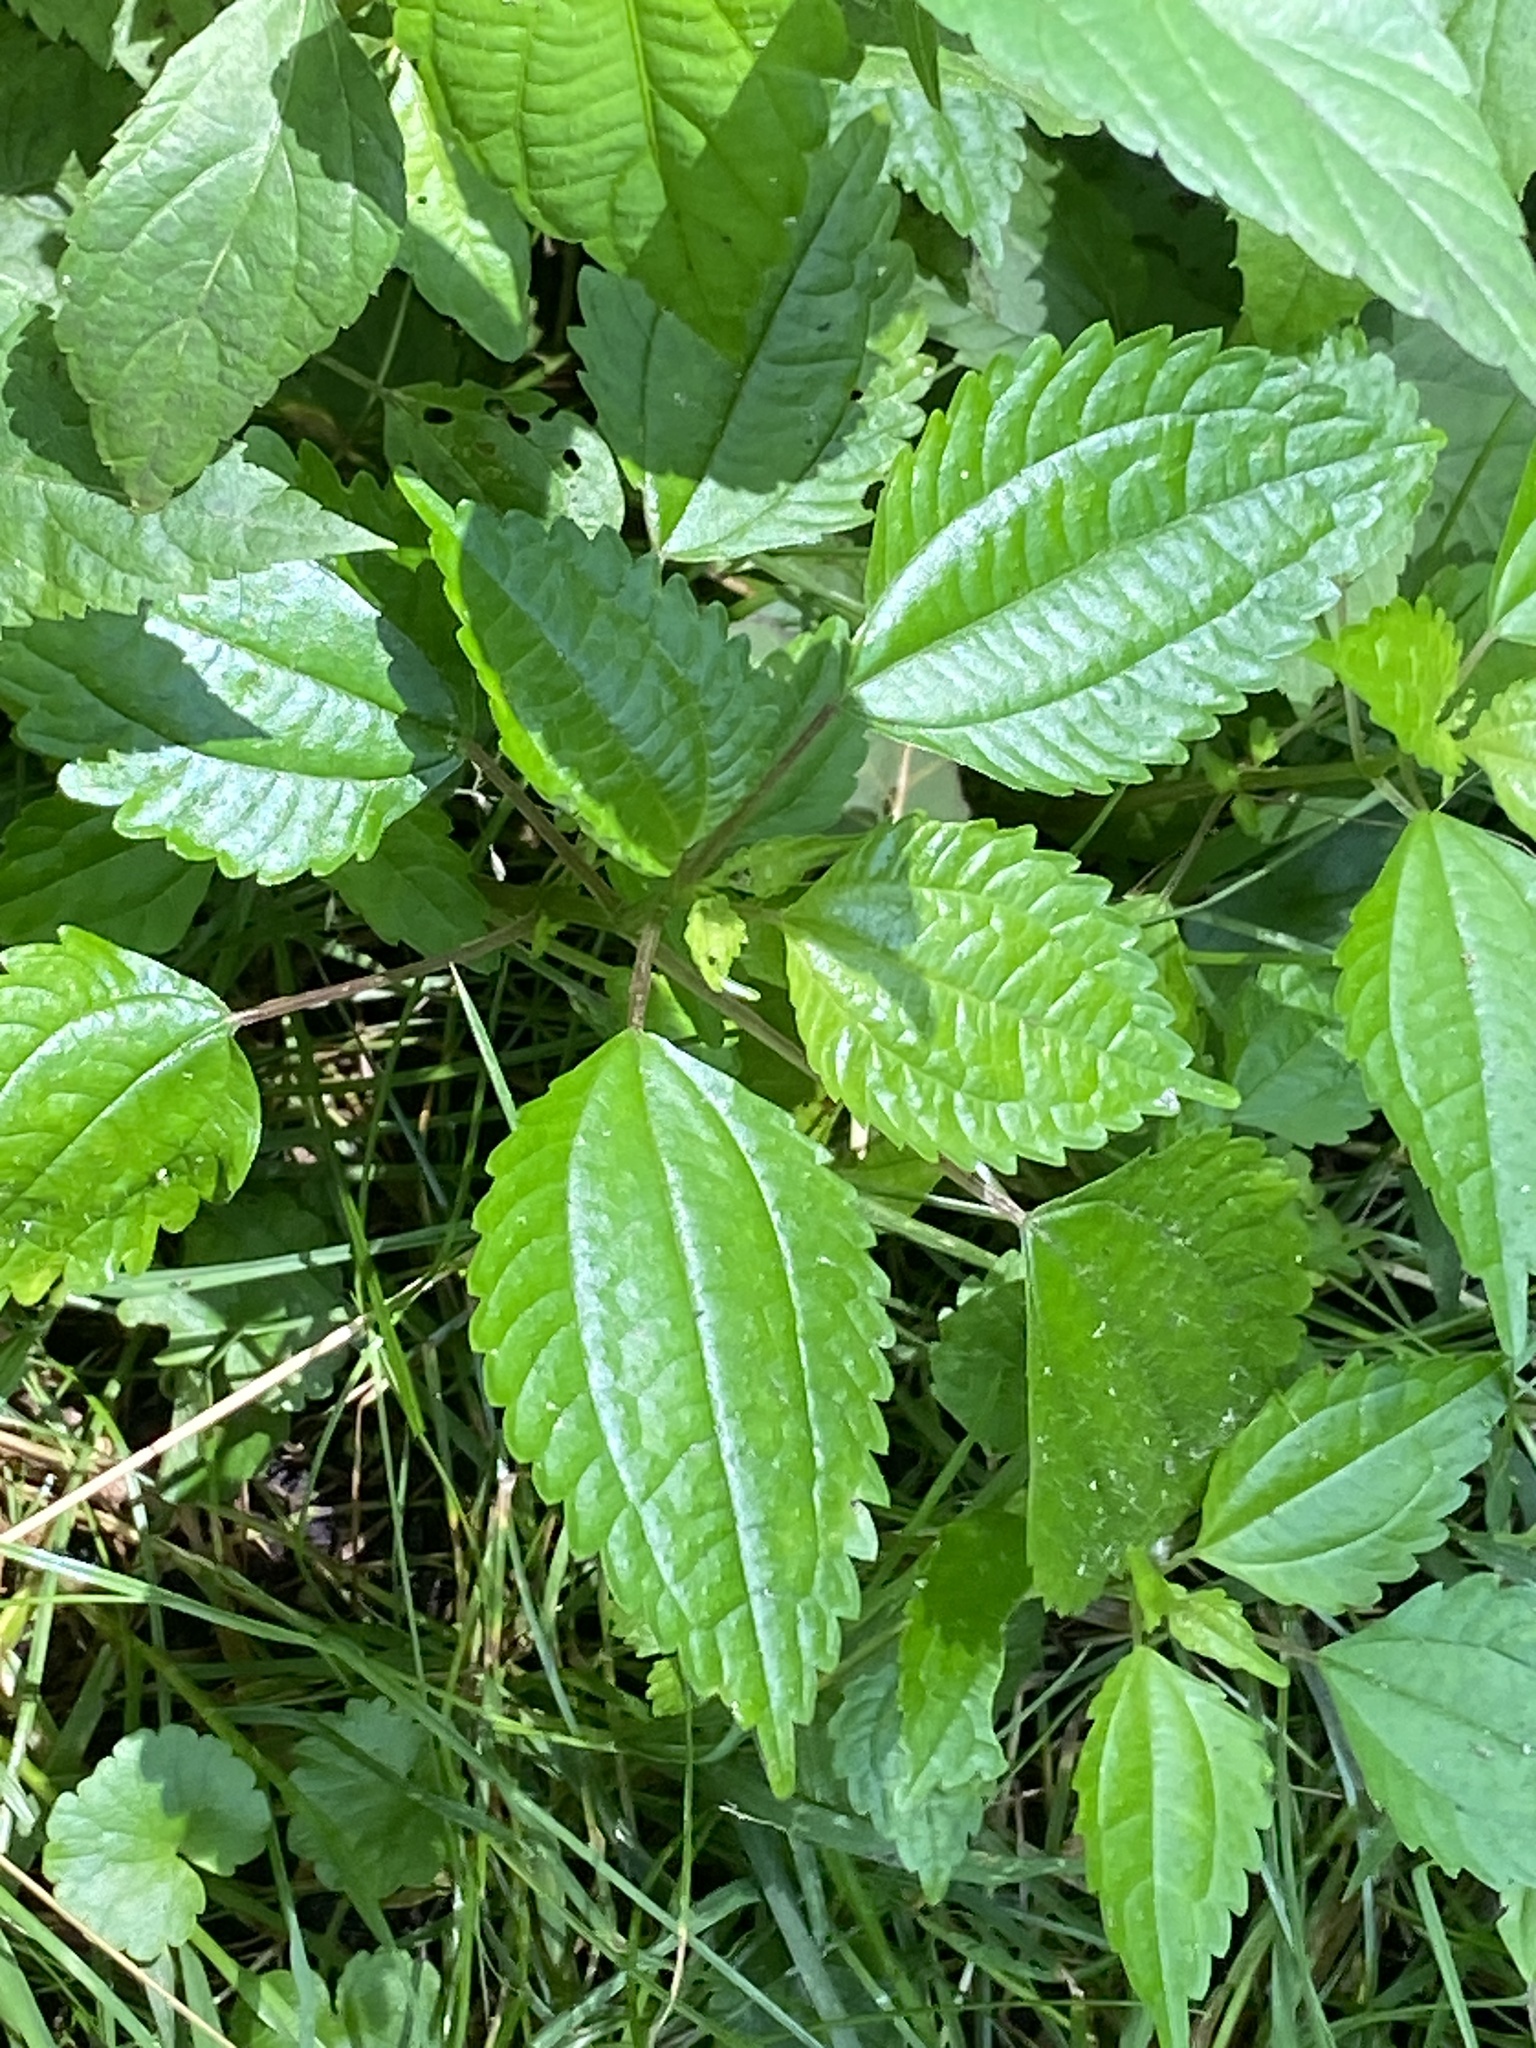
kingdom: Plantae
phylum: Tracheophyta
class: Magnoliopsida
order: Rosales
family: Urticaceae
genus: Pilea
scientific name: Pilea pumila
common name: Clearweed
